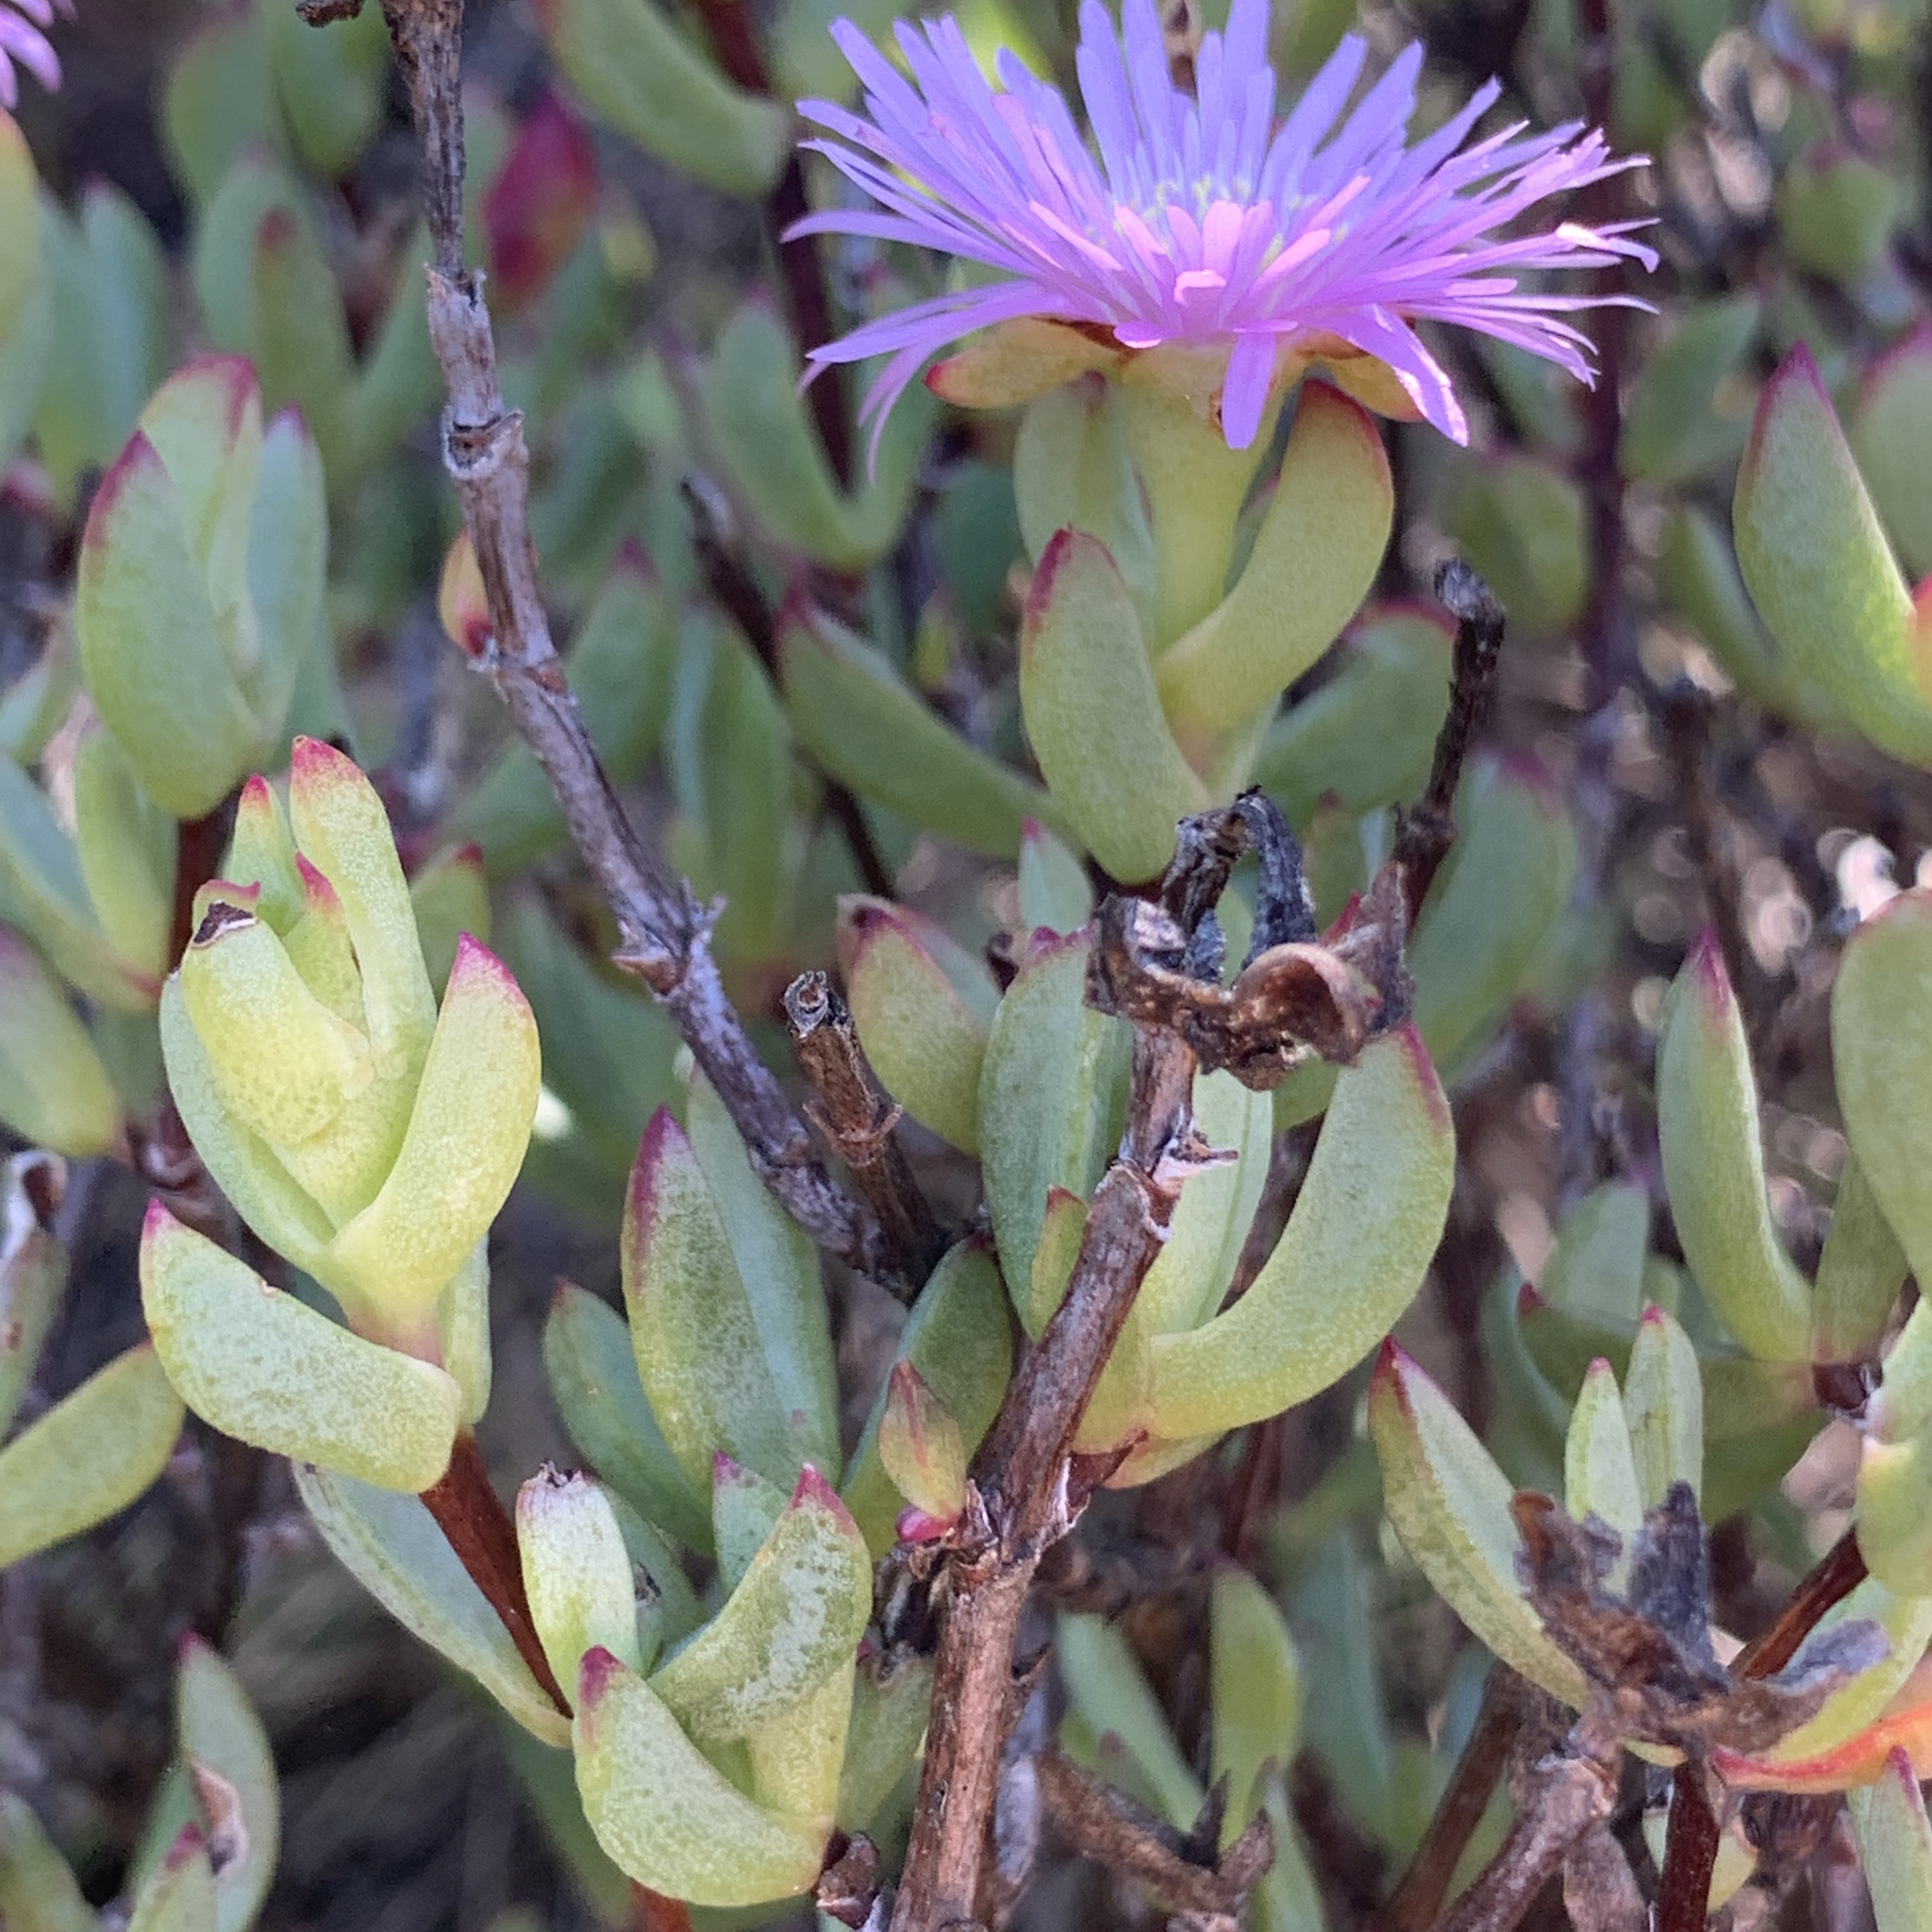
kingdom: Plantae
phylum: Tracheophyta
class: Magnoliopsida
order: Caryophyllales
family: Aizoaceae
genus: Oscularia
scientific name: Oscularia falciformis
